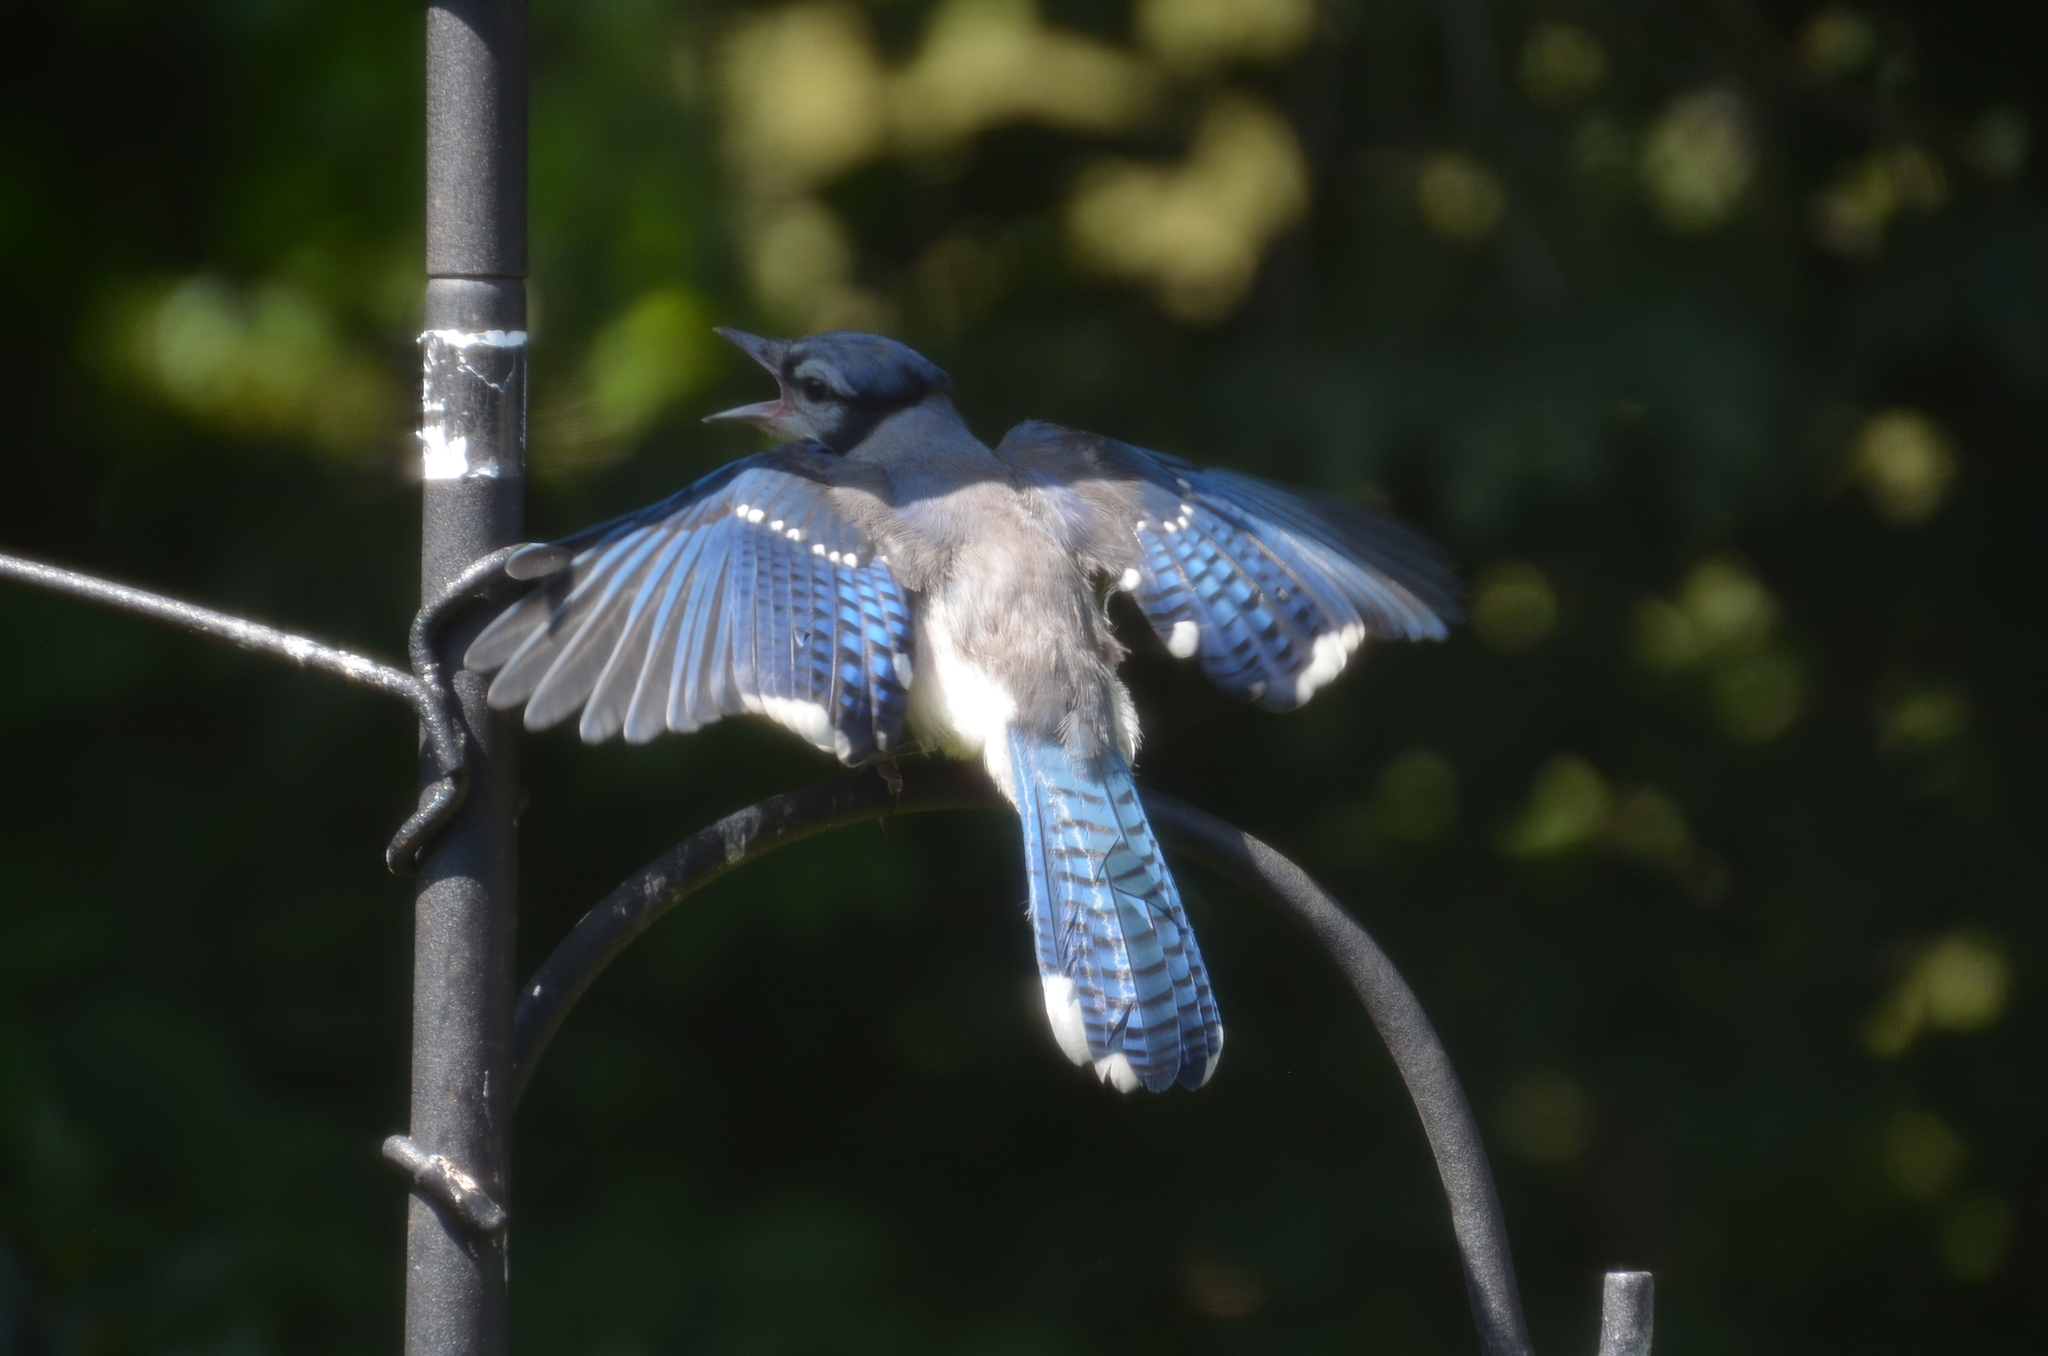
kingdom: Animalia
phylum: Chordata
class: Aves
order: Passeriformes
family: Corvidae
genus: Cyanocitta
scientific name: Cyanocitta cristata
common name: Blue jay
